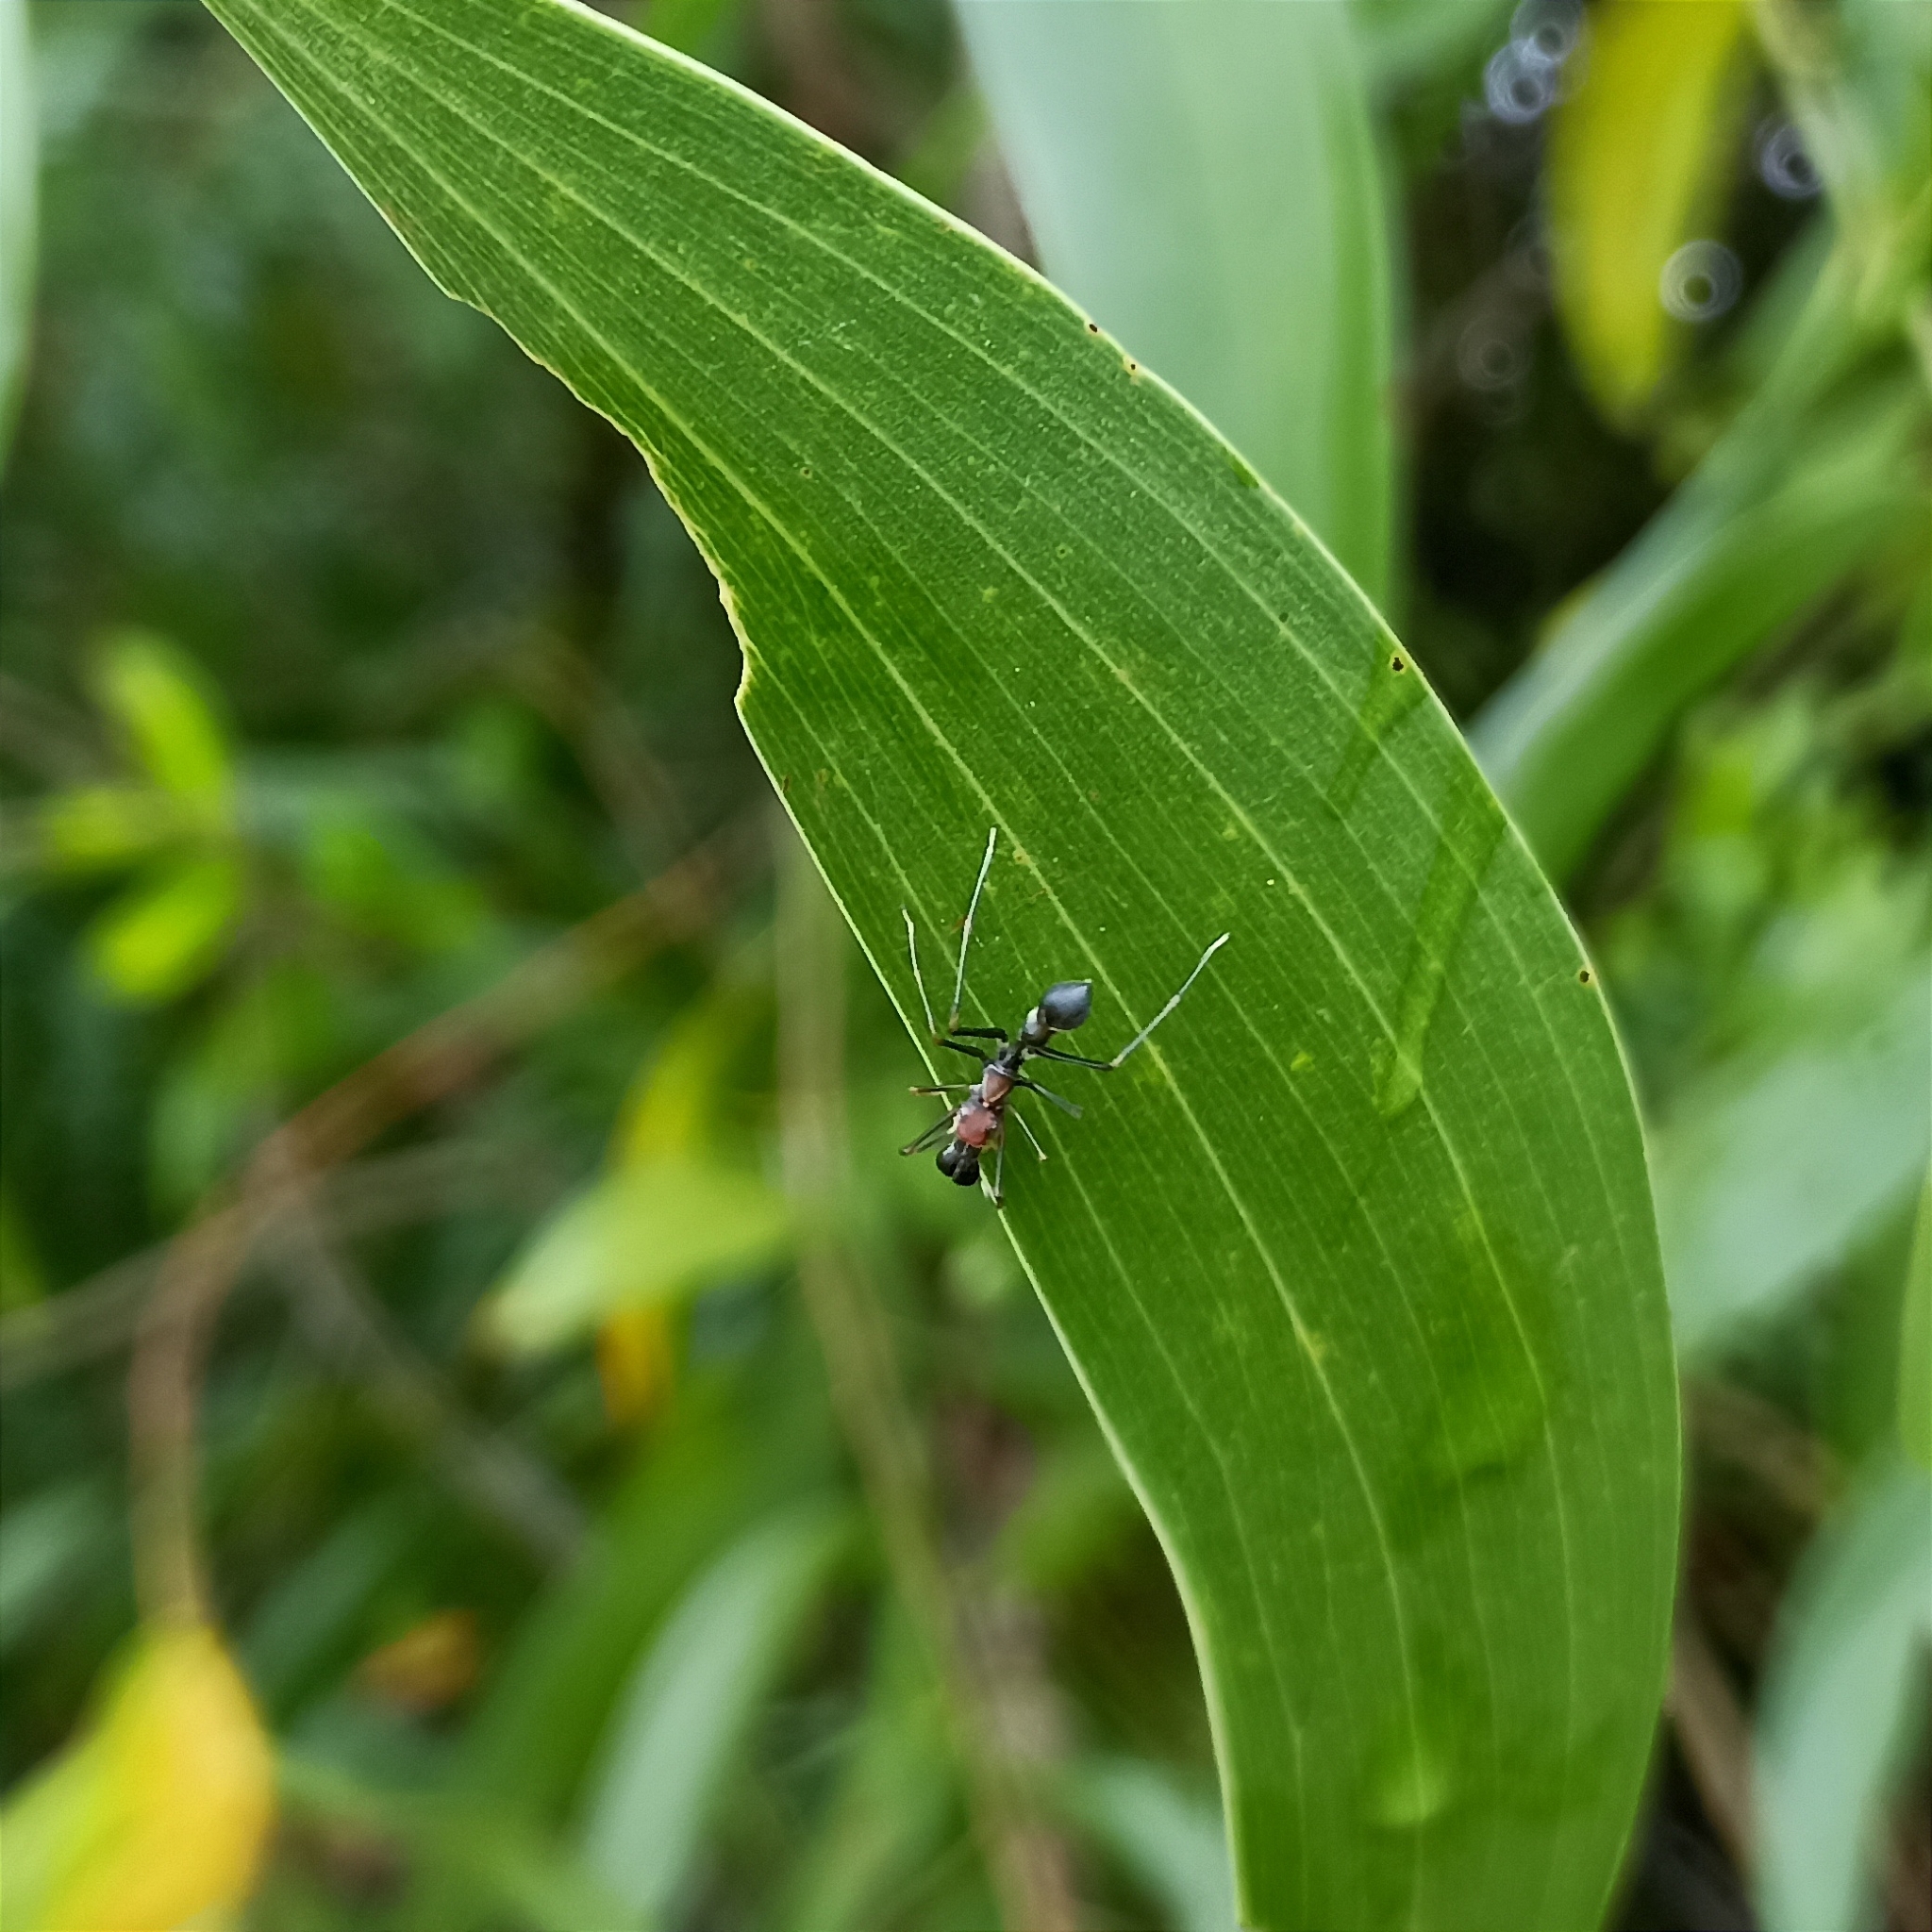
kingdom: Animalia
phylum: Arthropoda
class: Arachnida
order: Araneae
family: Salticidae
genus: Myrmarachne
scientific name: Myrmarachne melanocephala
